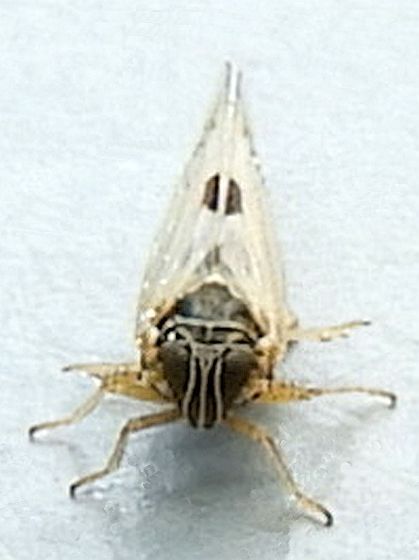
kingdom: Animalia
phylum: Arthropoda
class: Insecta
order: Hemiptera
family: Delphacidae
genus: Chionomus
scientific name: Chionomus
